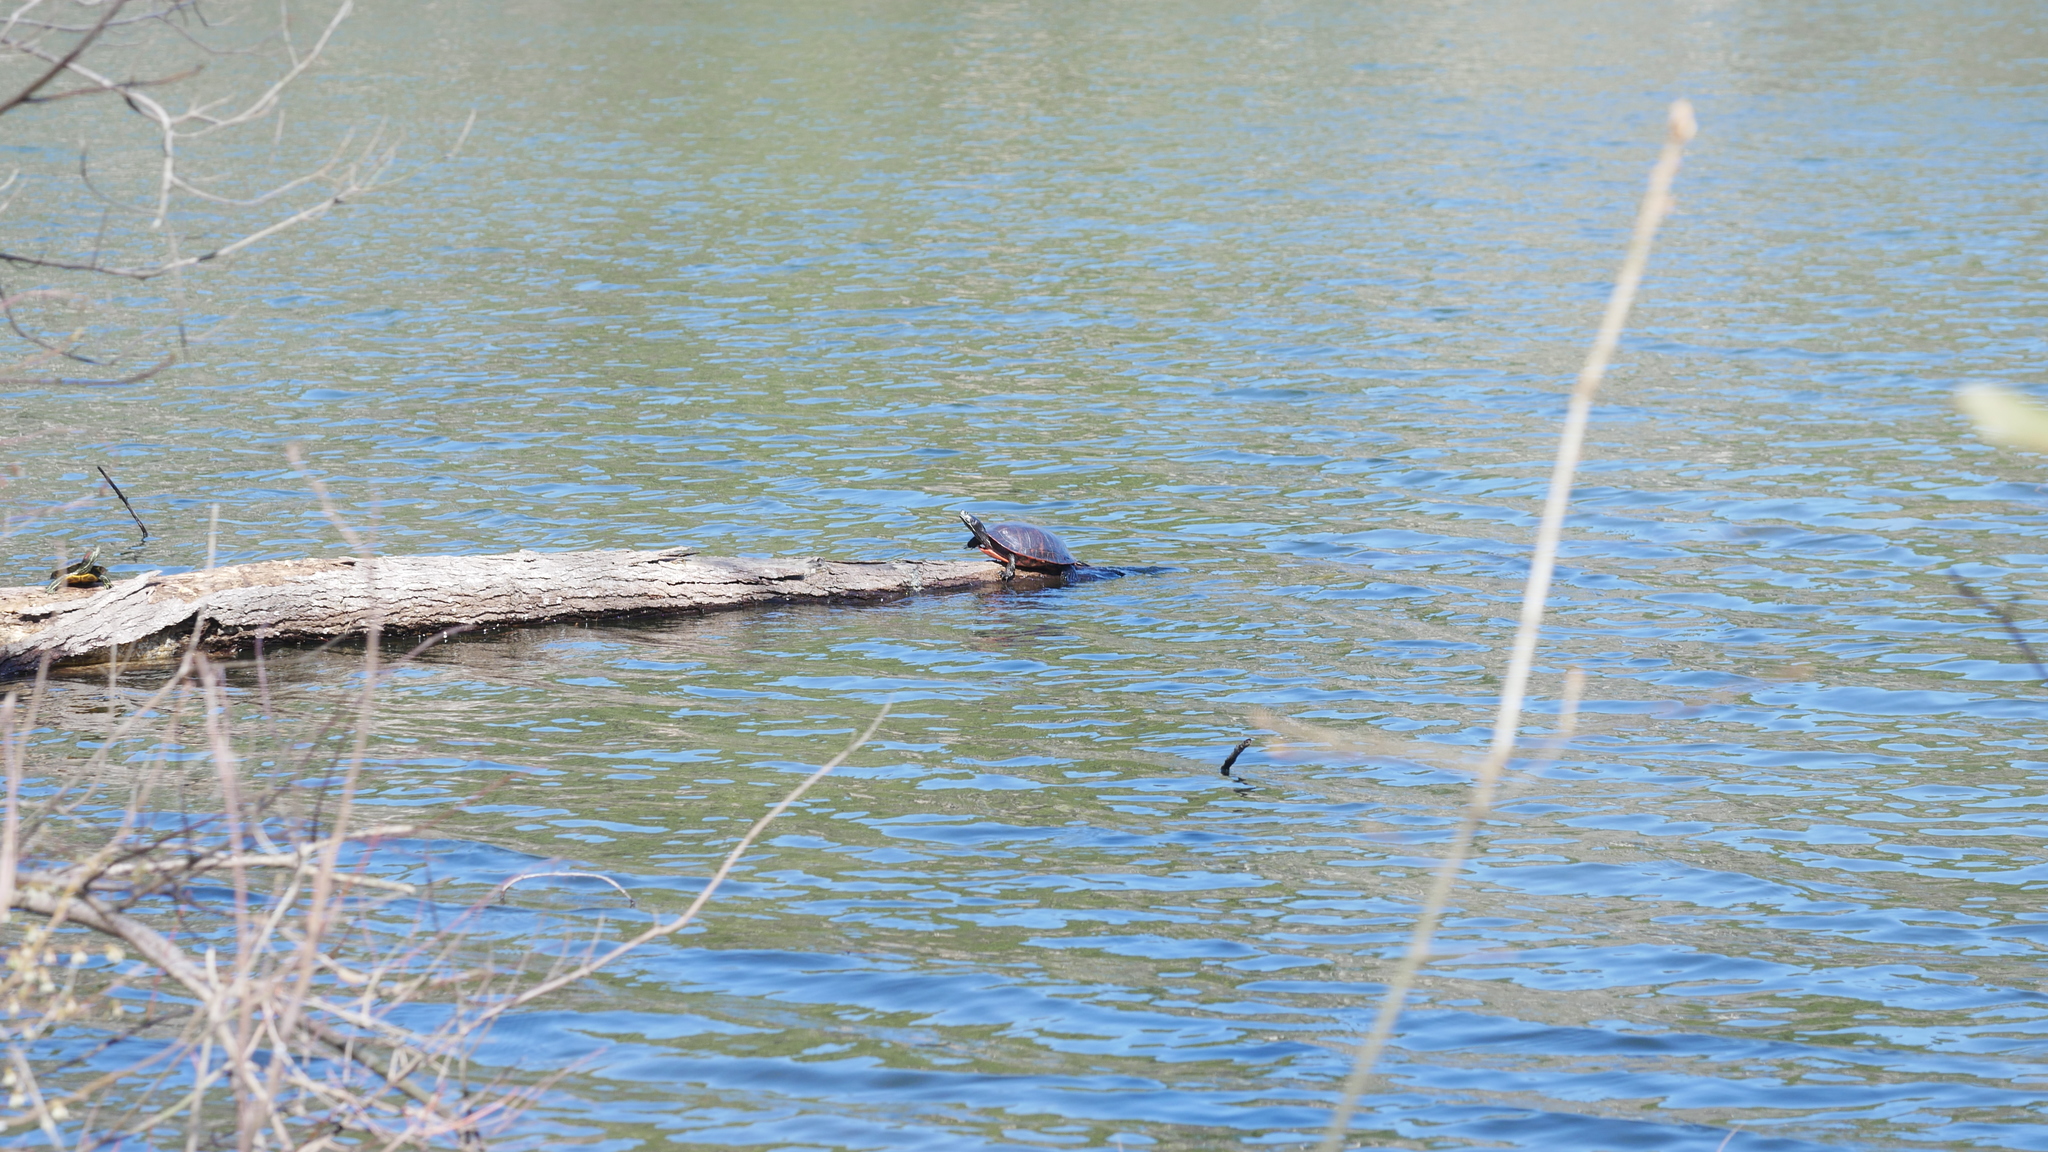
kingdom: Animalia
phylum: Chordata
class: Testudines
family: Emydidae
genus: Pseudemys
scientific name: Pseudemys rubriventris
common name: American red-bellied turtle
